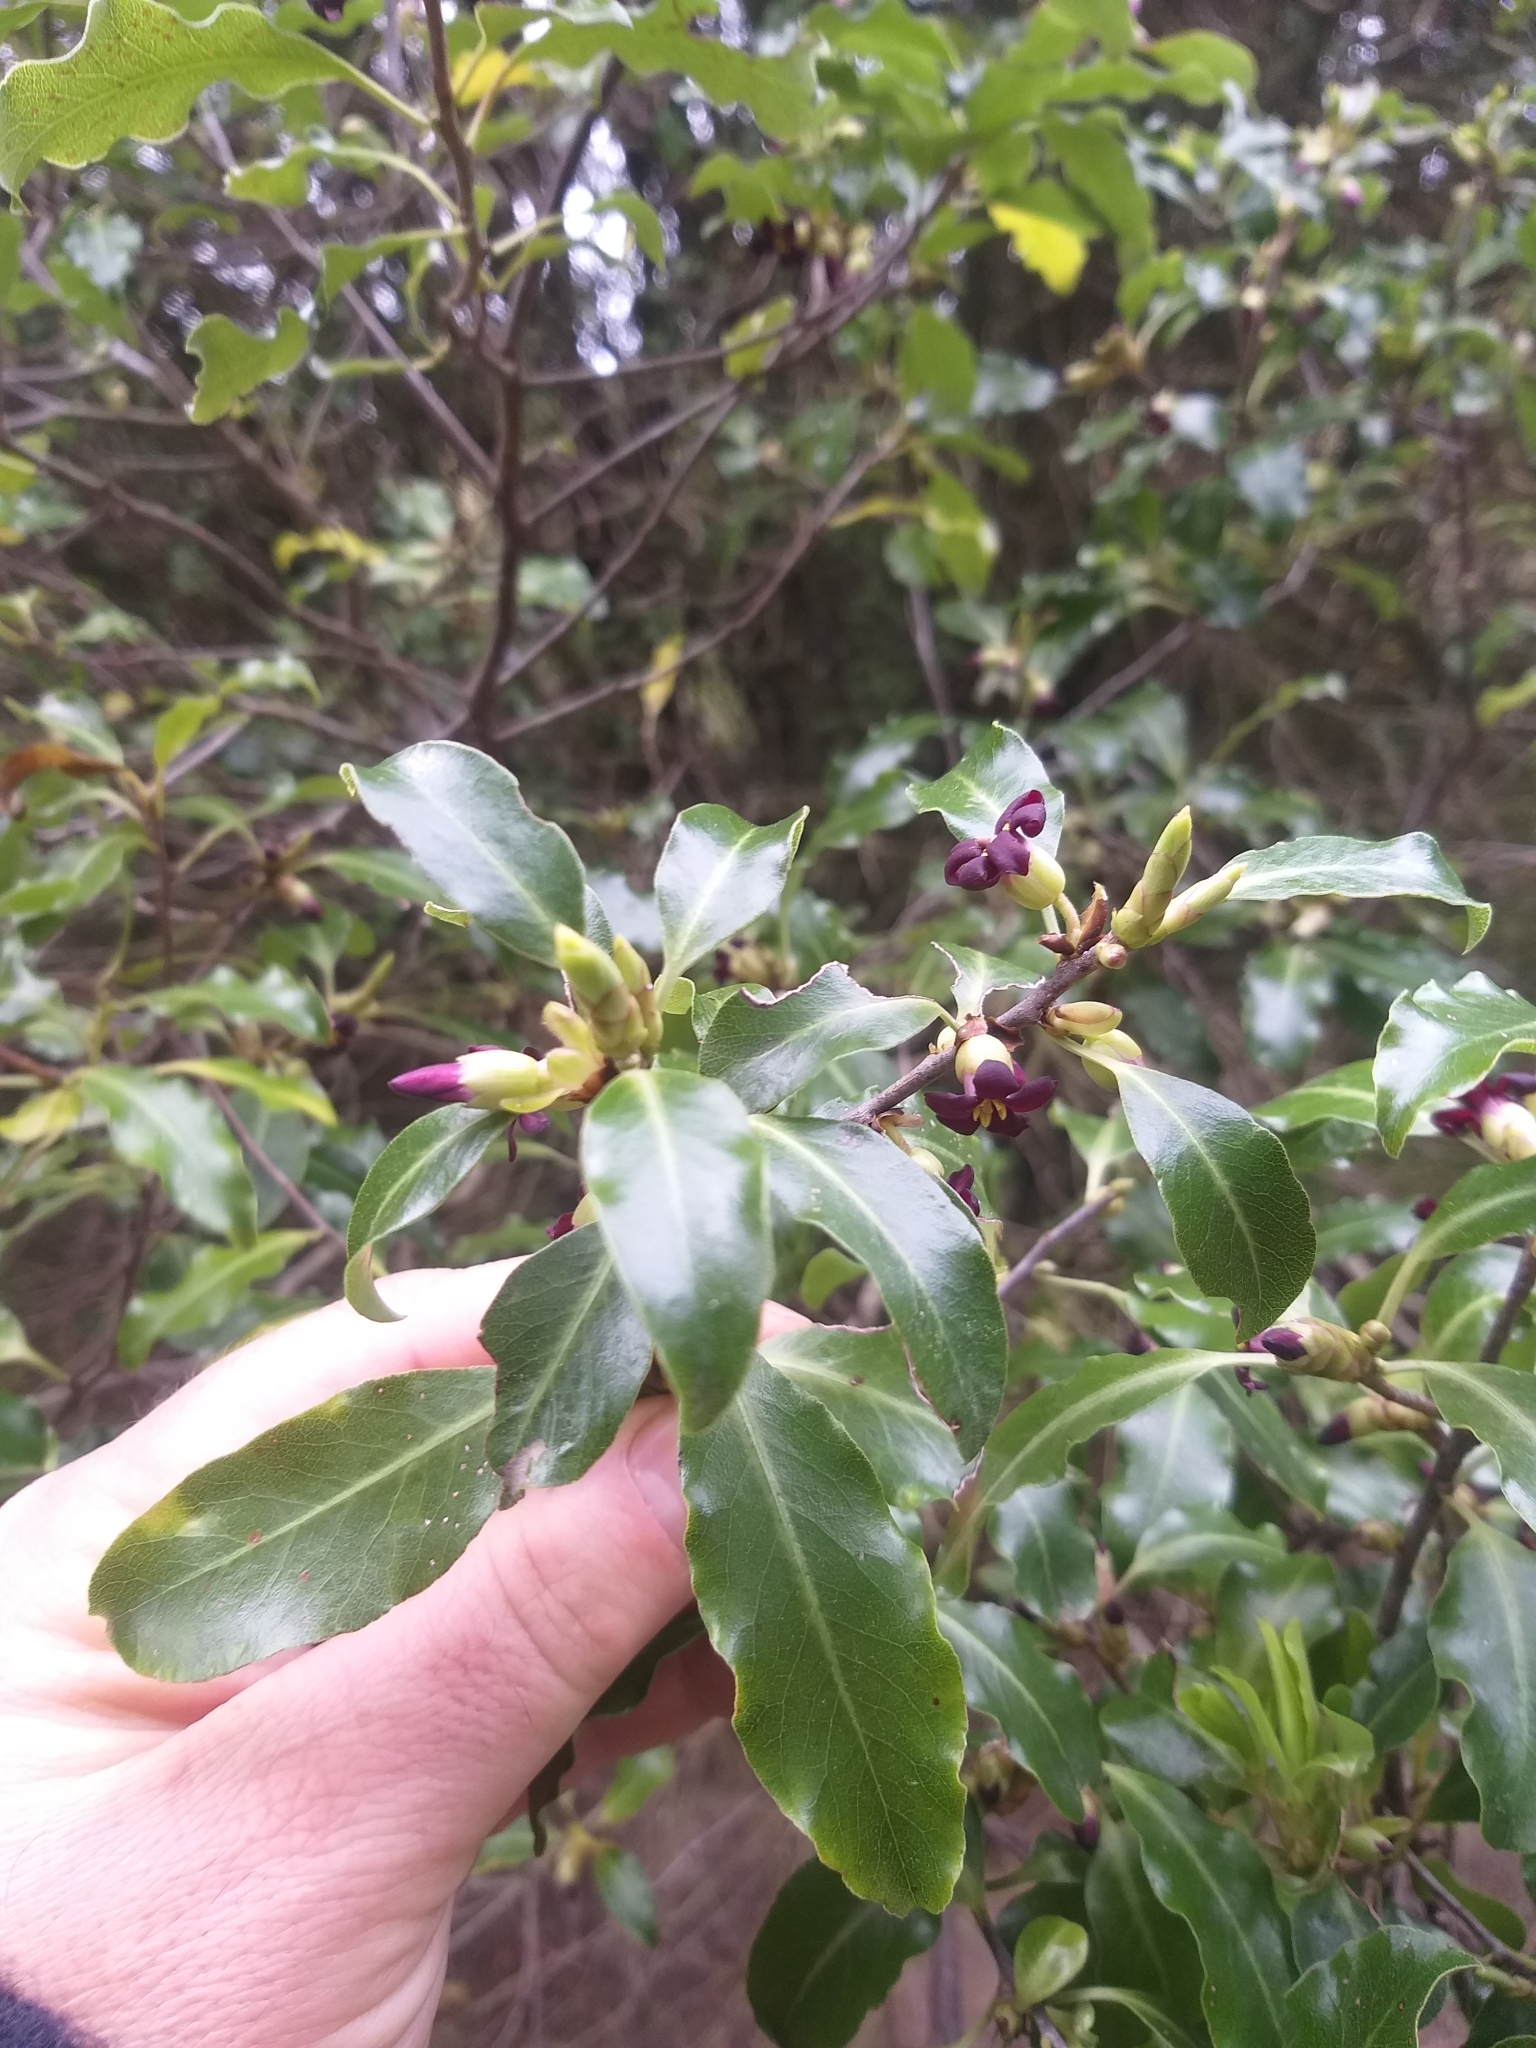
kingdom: Plantae
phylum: Tracheophyta
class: Magnoliopsida
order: Apiales
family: Pittosporaceae
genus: Pittosporum
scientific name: Pittosporum tenuifolium
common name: Kohuhu
